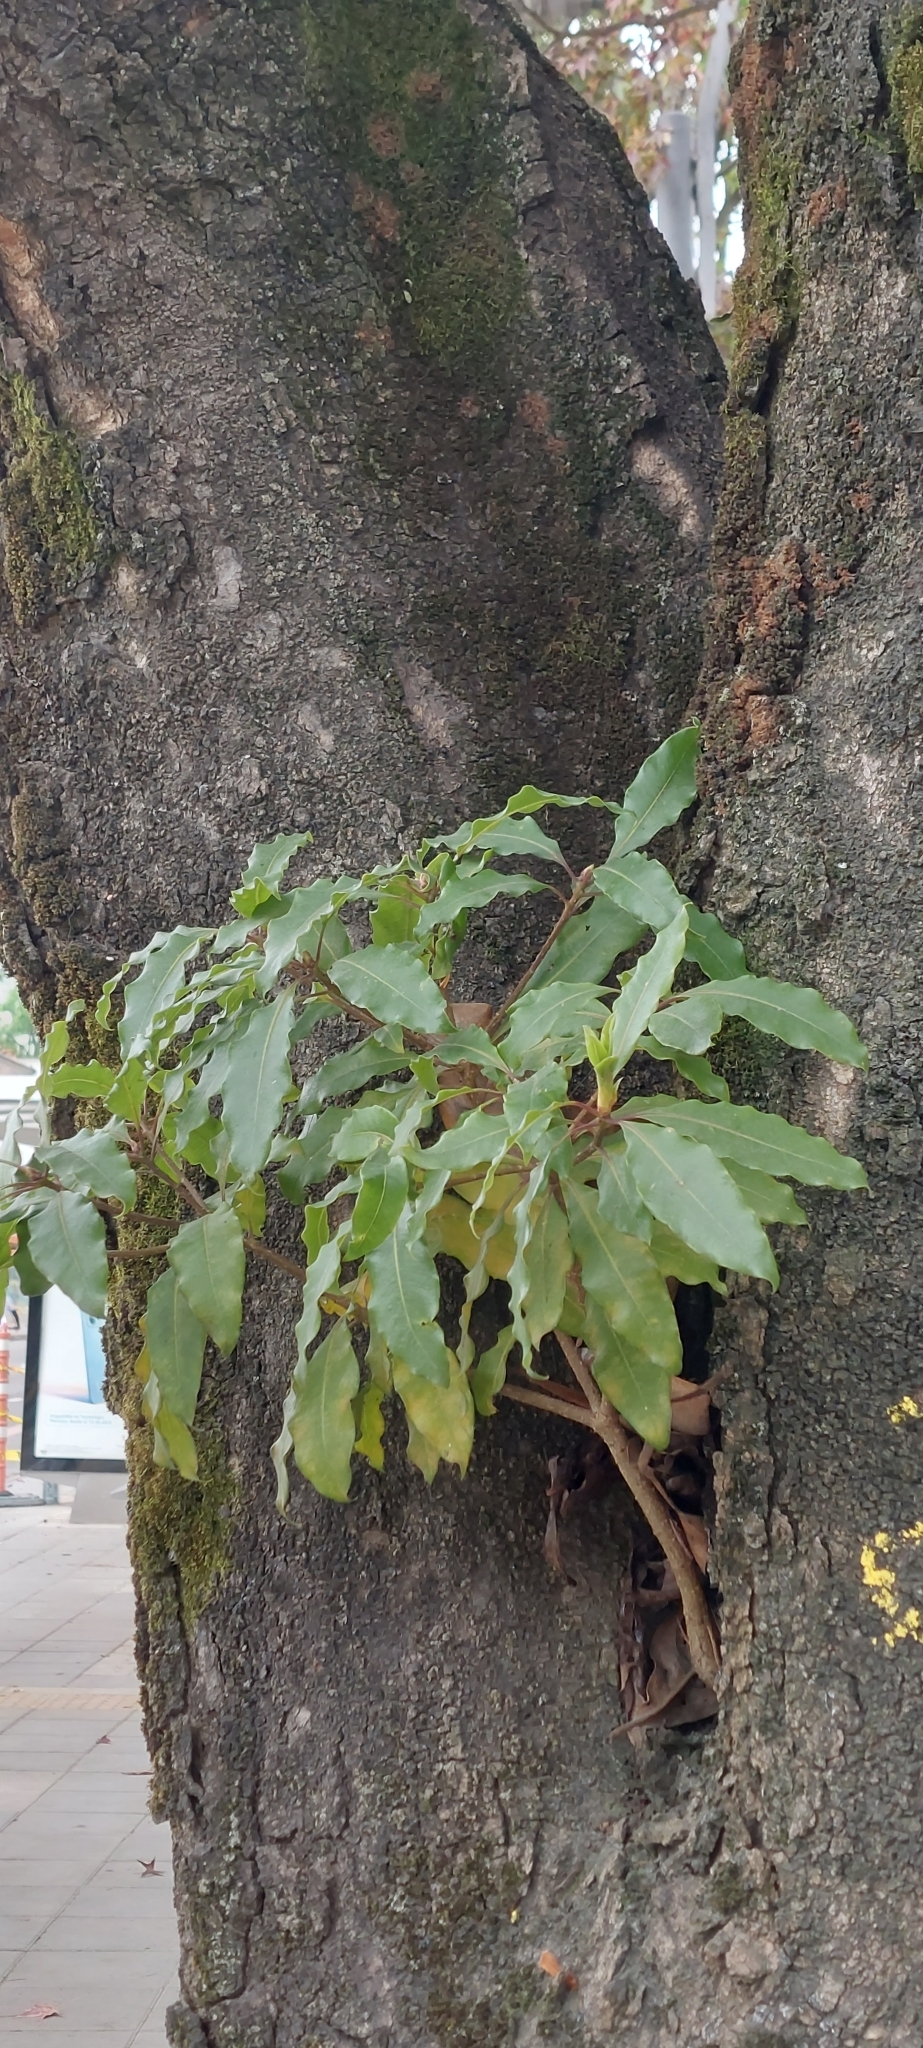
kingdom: Plantae
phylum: Tracheophyta
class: Magnoliopsida
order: Apiales
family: Pittosporaceae
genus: Pittosporum
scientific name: Pittosporum undulatum
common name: Australian cheesewood
